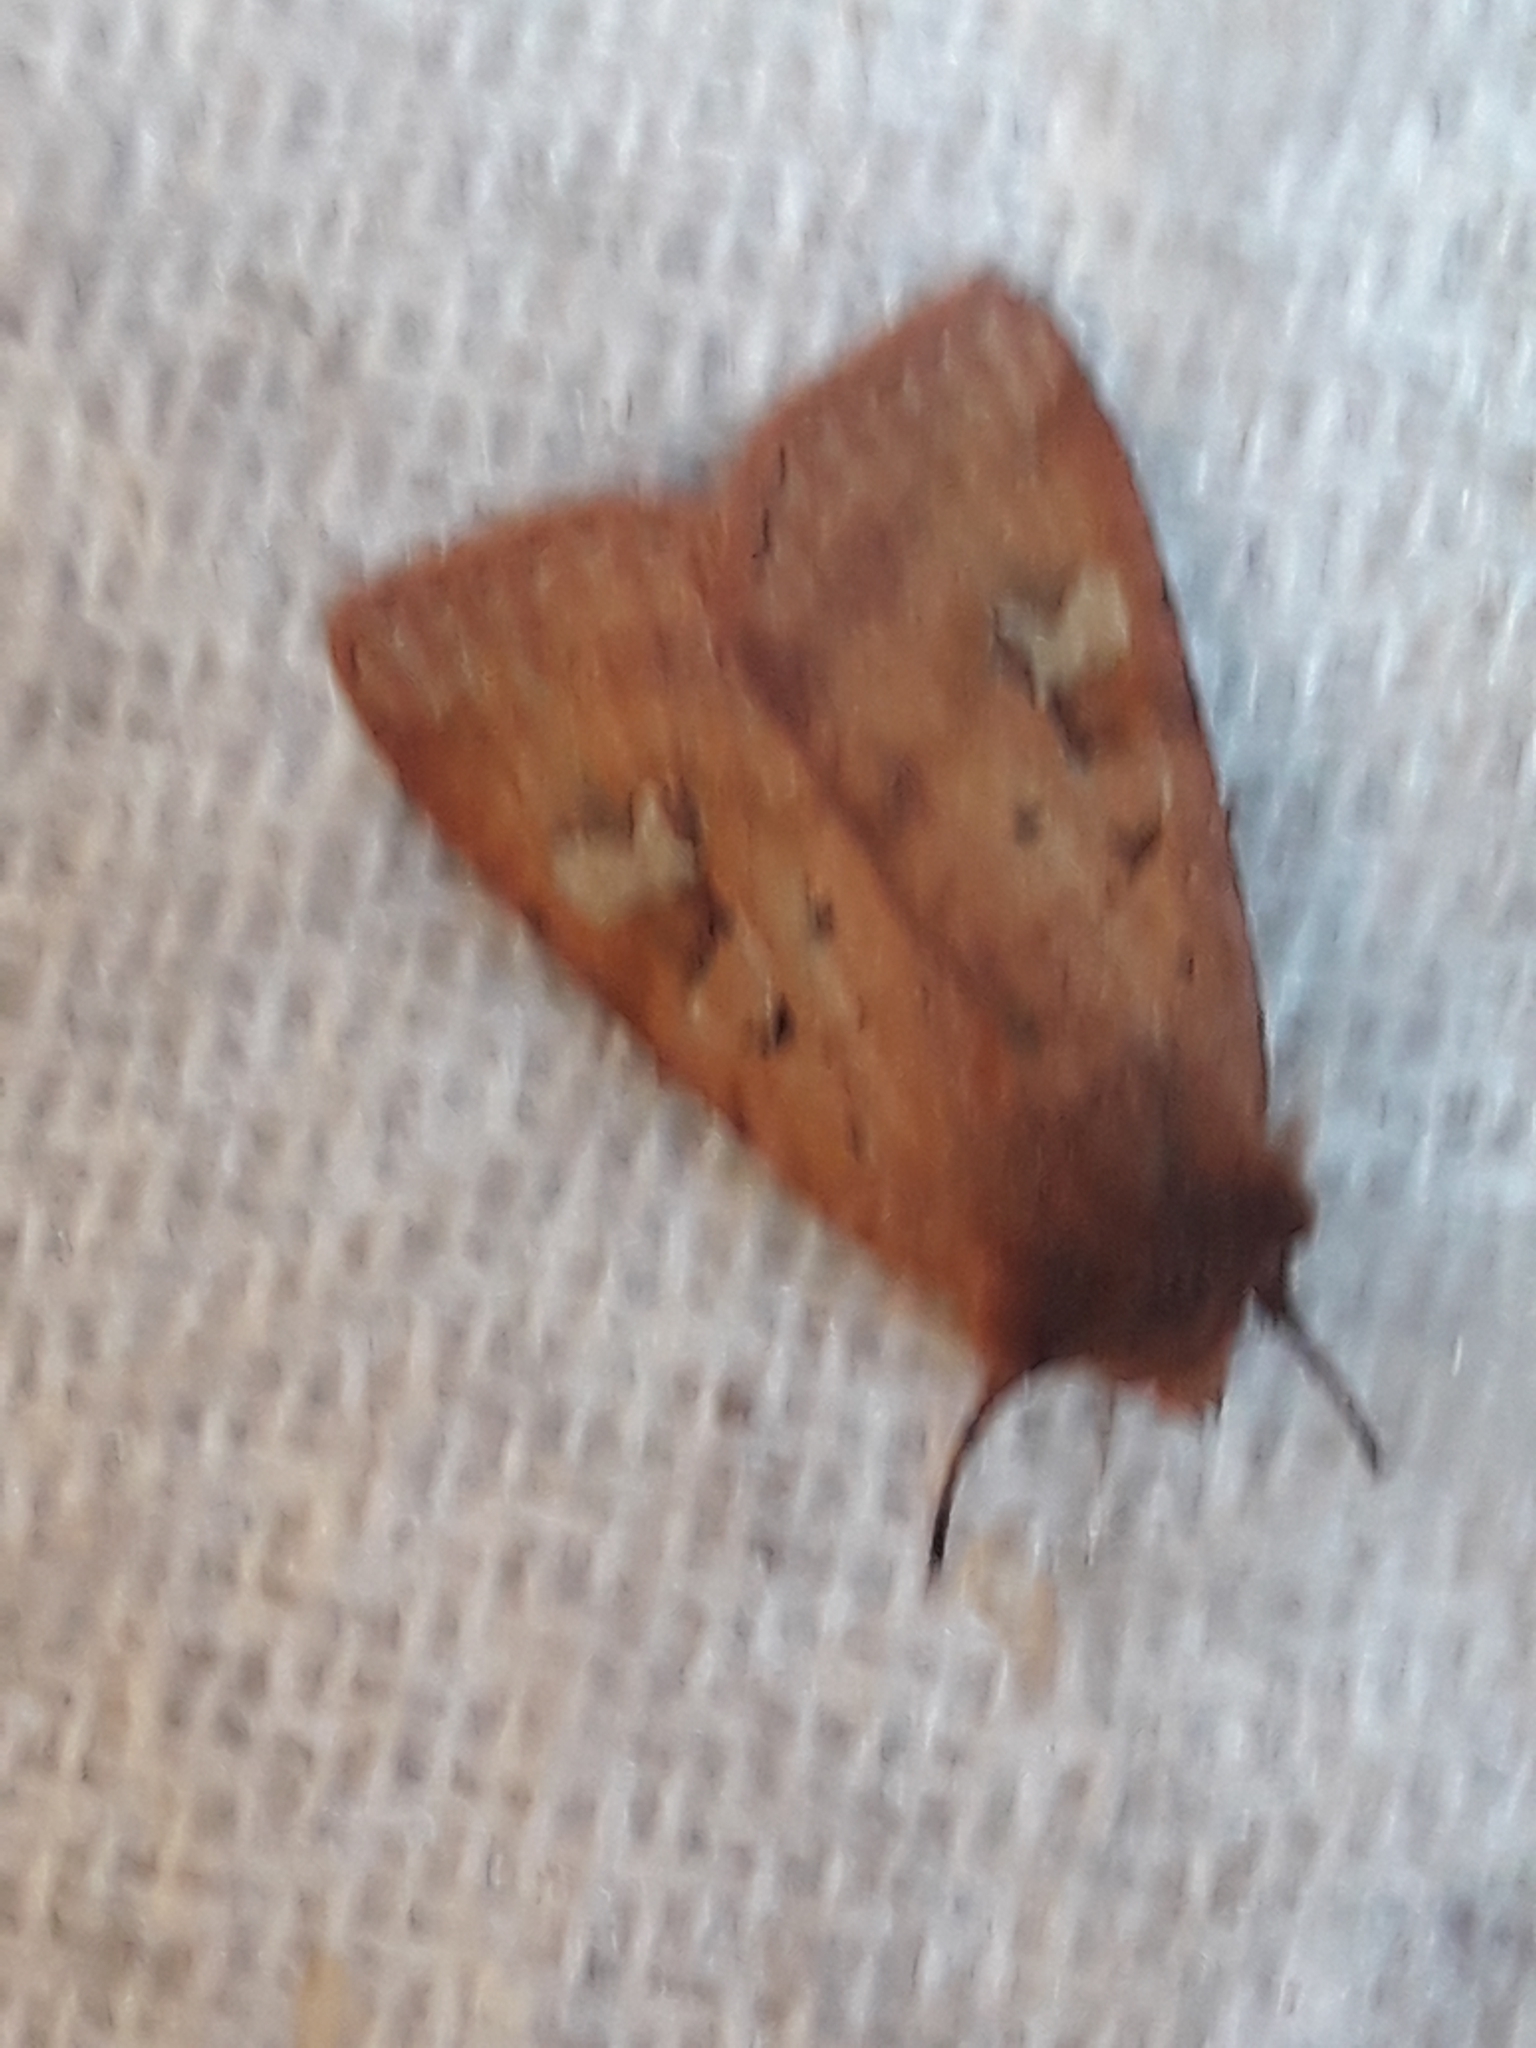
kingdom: Animalia
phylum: Arthropoda
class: Insecta
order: Lepidoptera
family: Noctuidae
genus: Diarsia
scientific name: Diarsia mendica
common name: Ingrailed clay
